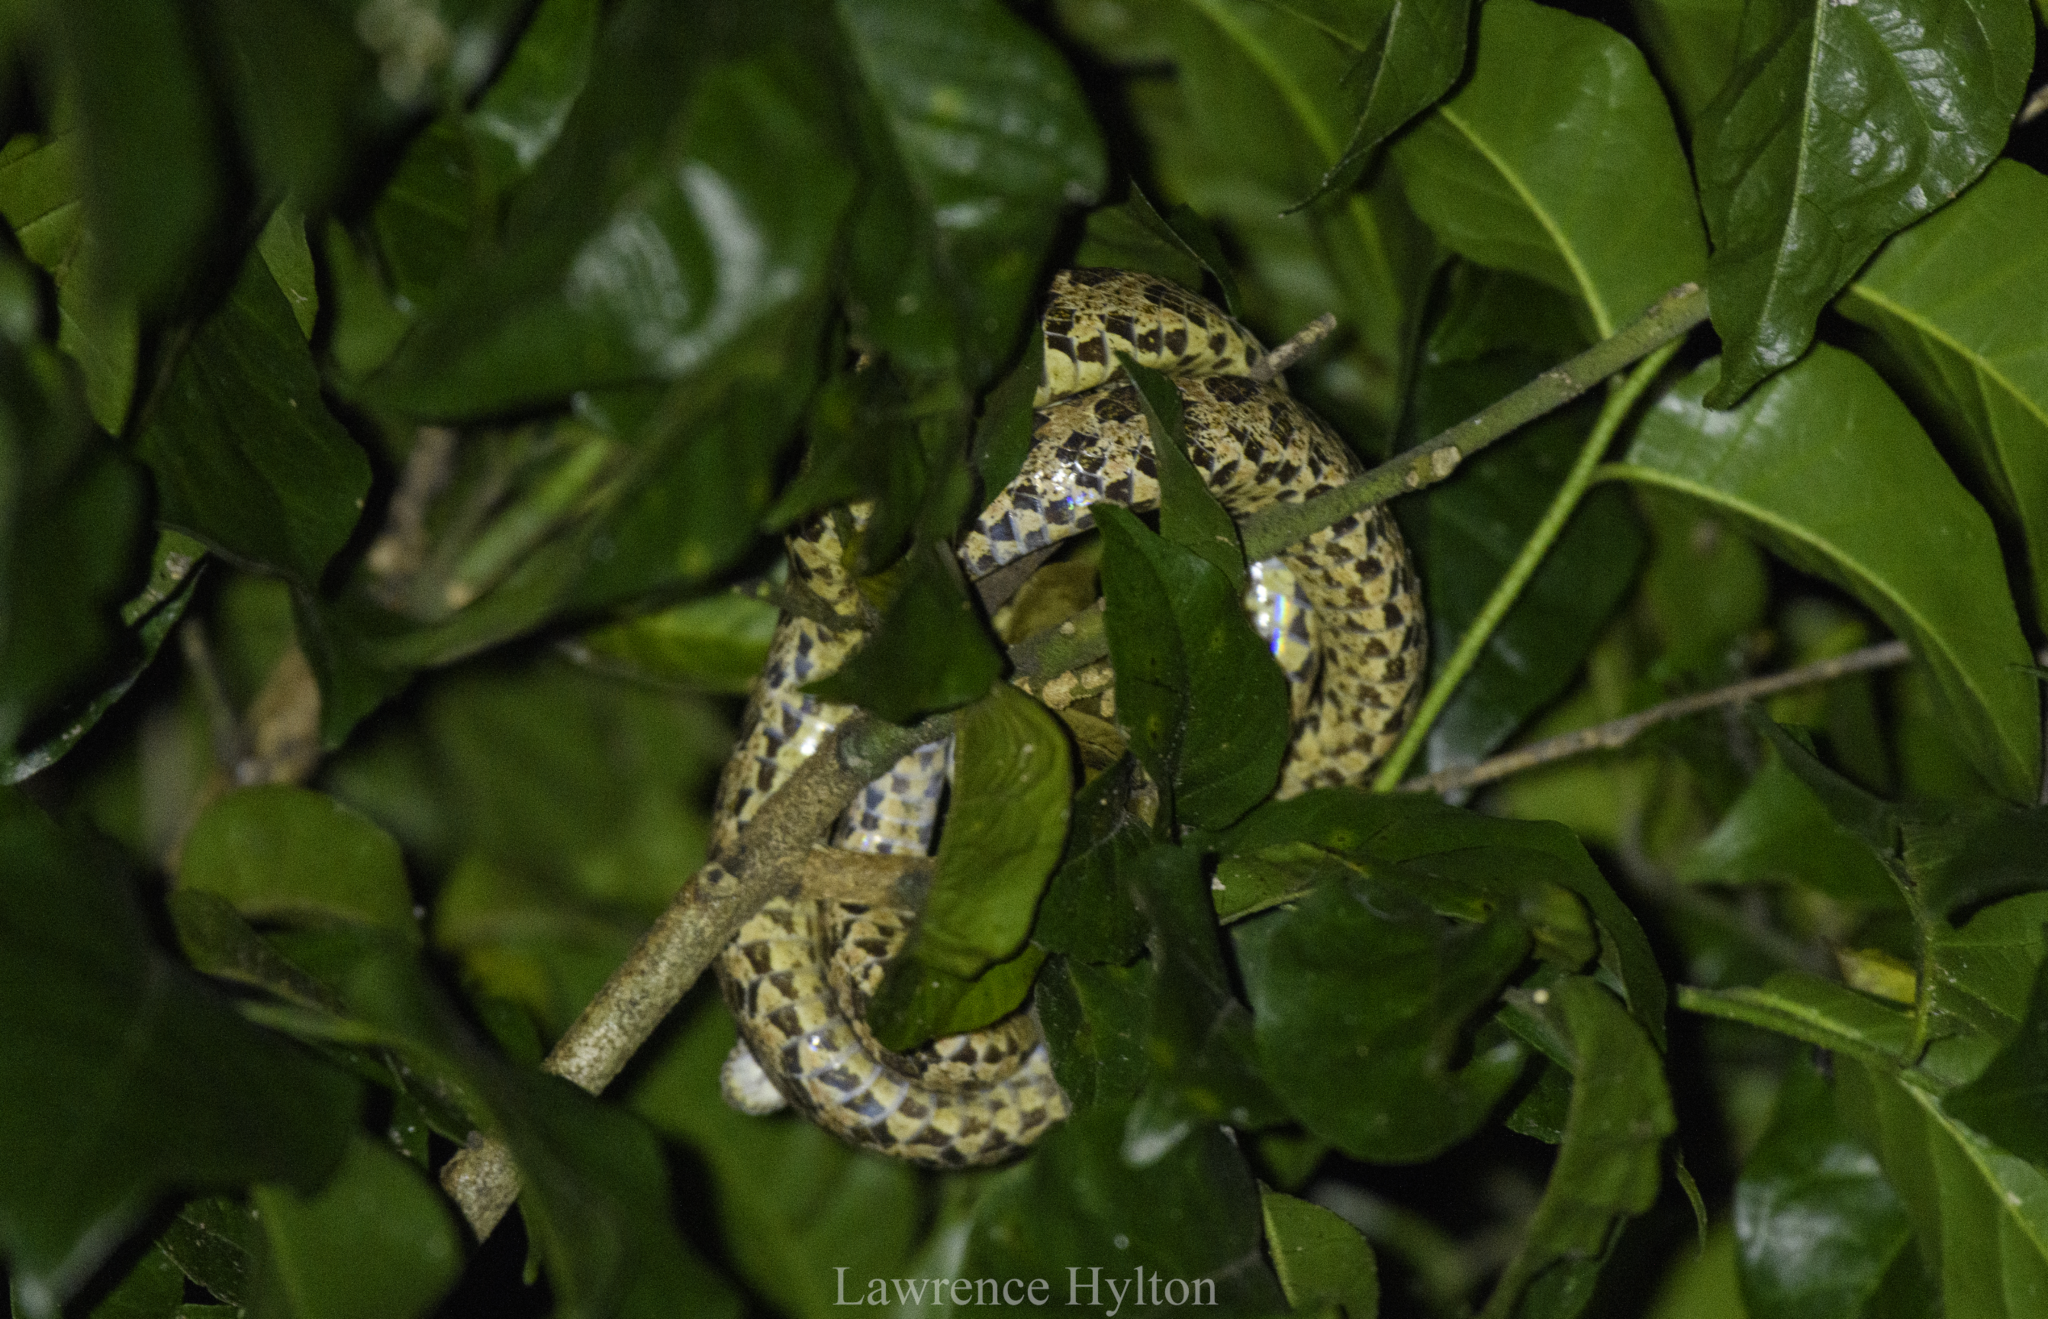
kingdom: Animalia
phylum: Chordata
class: Squamata
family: Colubridae
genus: Boiga
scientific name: Boiga multomaculata
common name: Many-spotted cat snake
